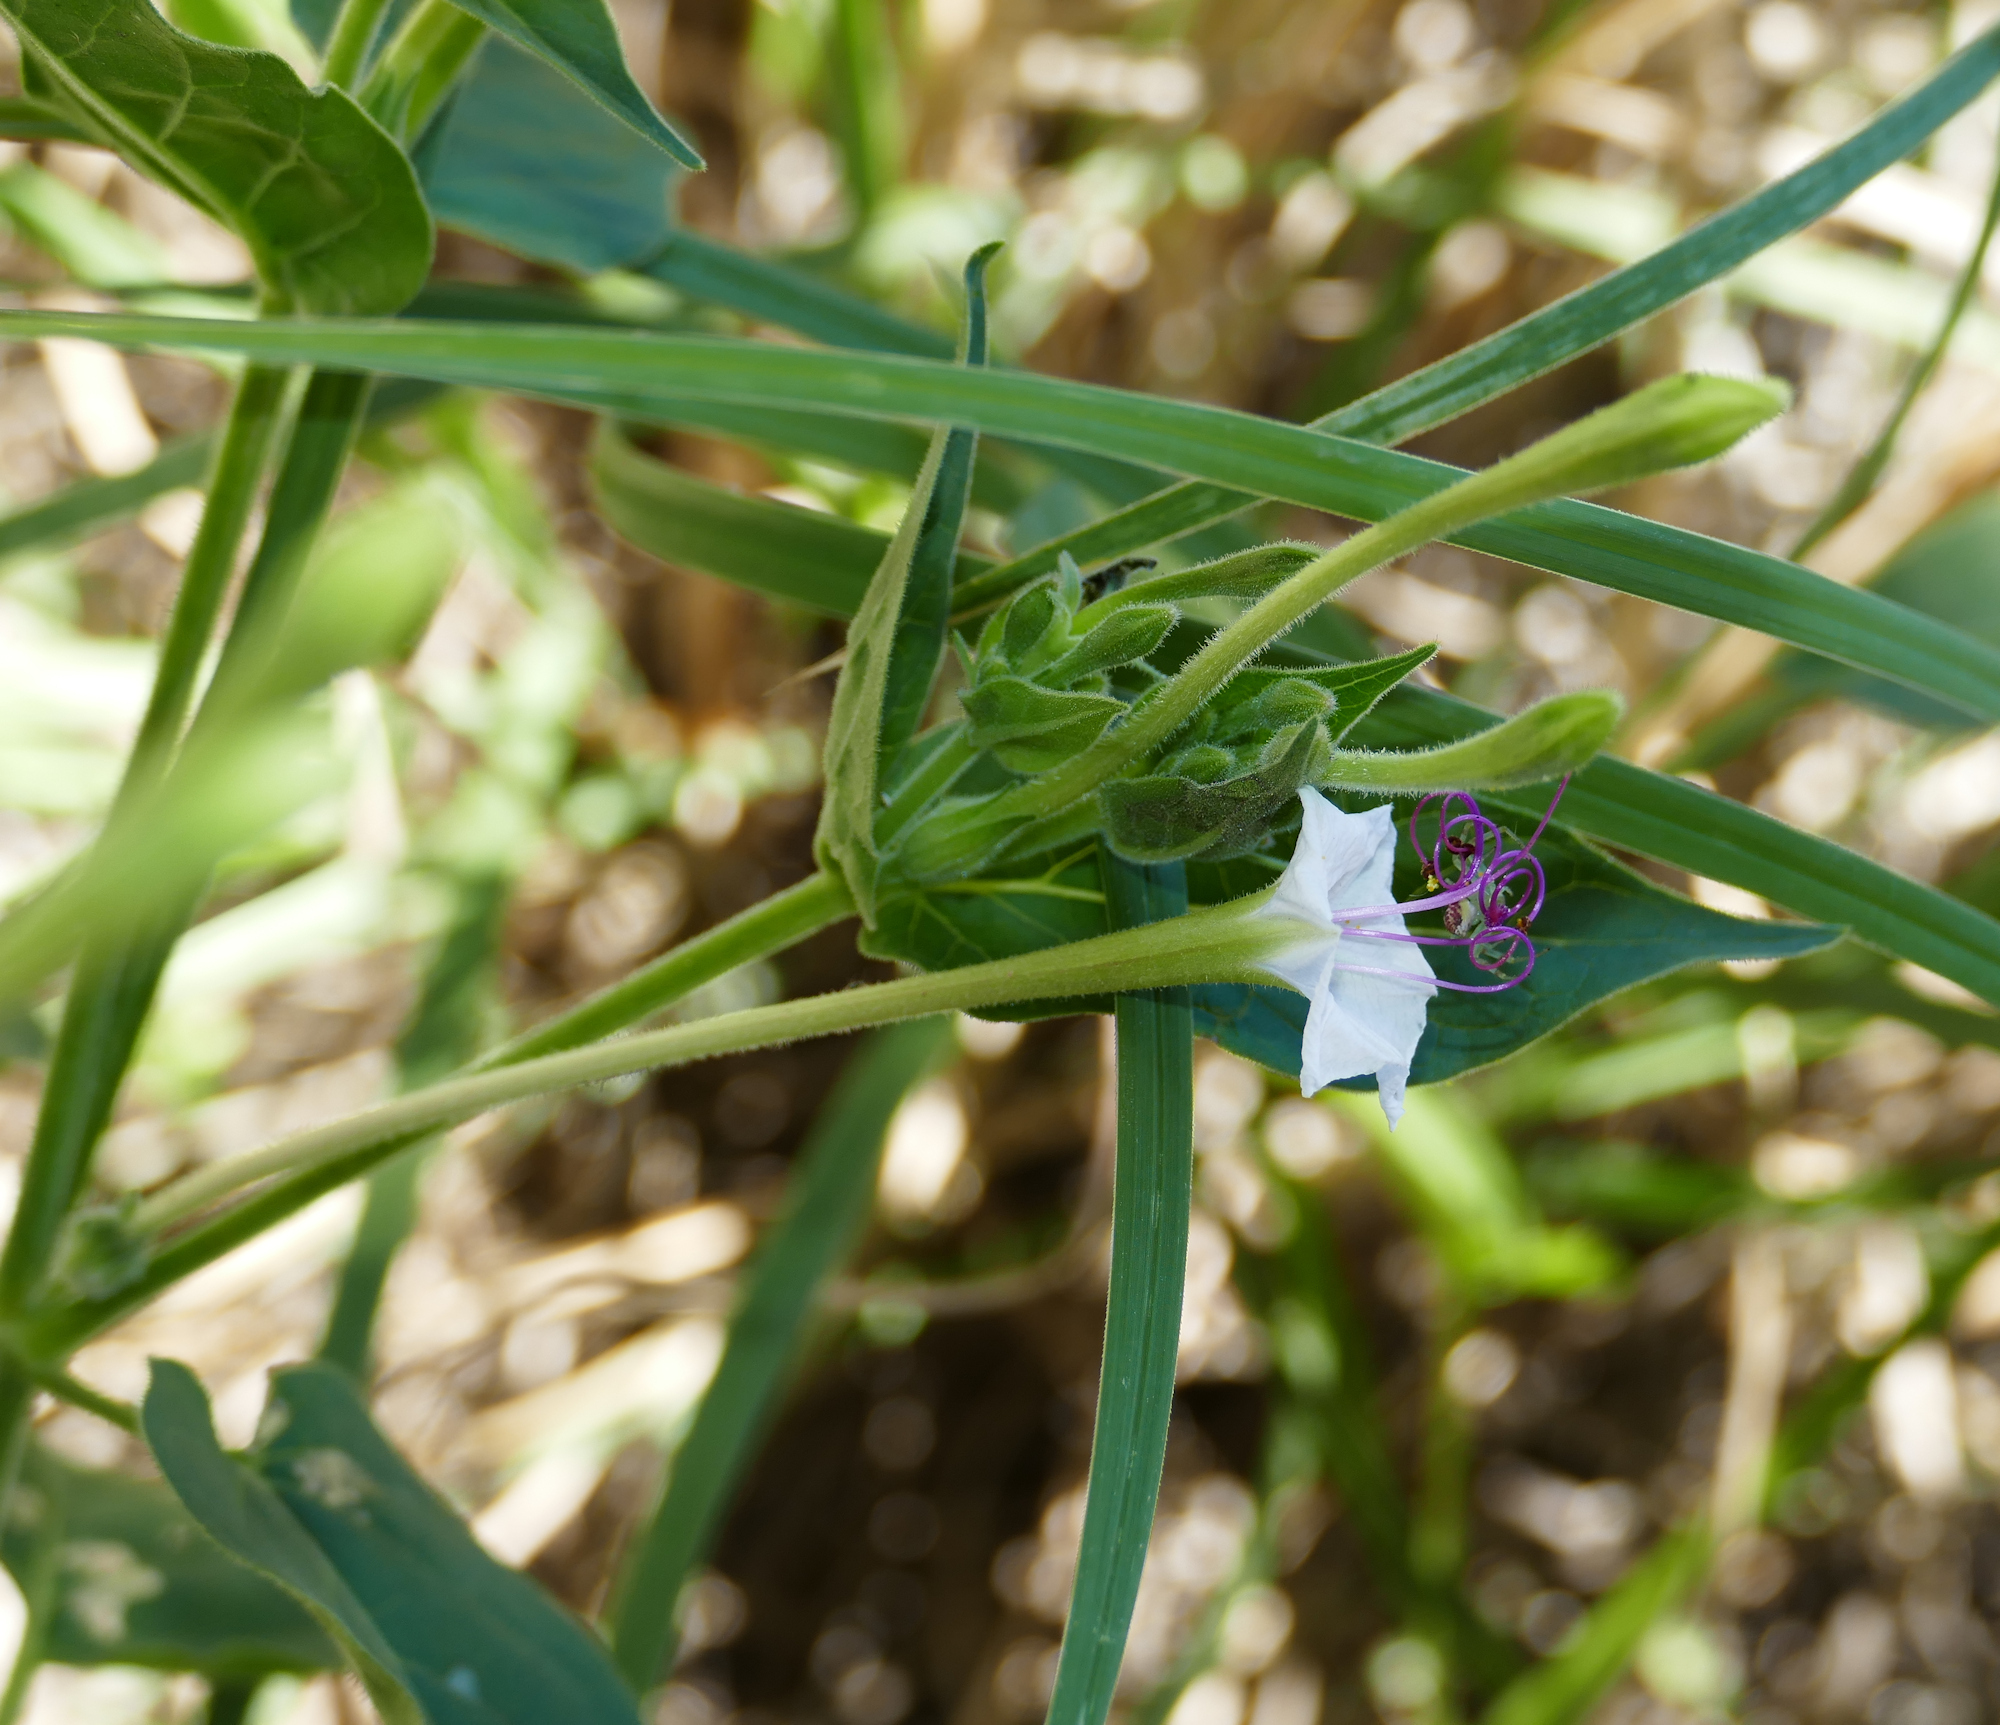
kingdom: Plantae
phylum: Tracheophyta
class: Magnoliopsida
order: Caryophyllales
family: Nyctaginaceae
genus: Mirabilis
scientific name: Mirabilis longiflora
